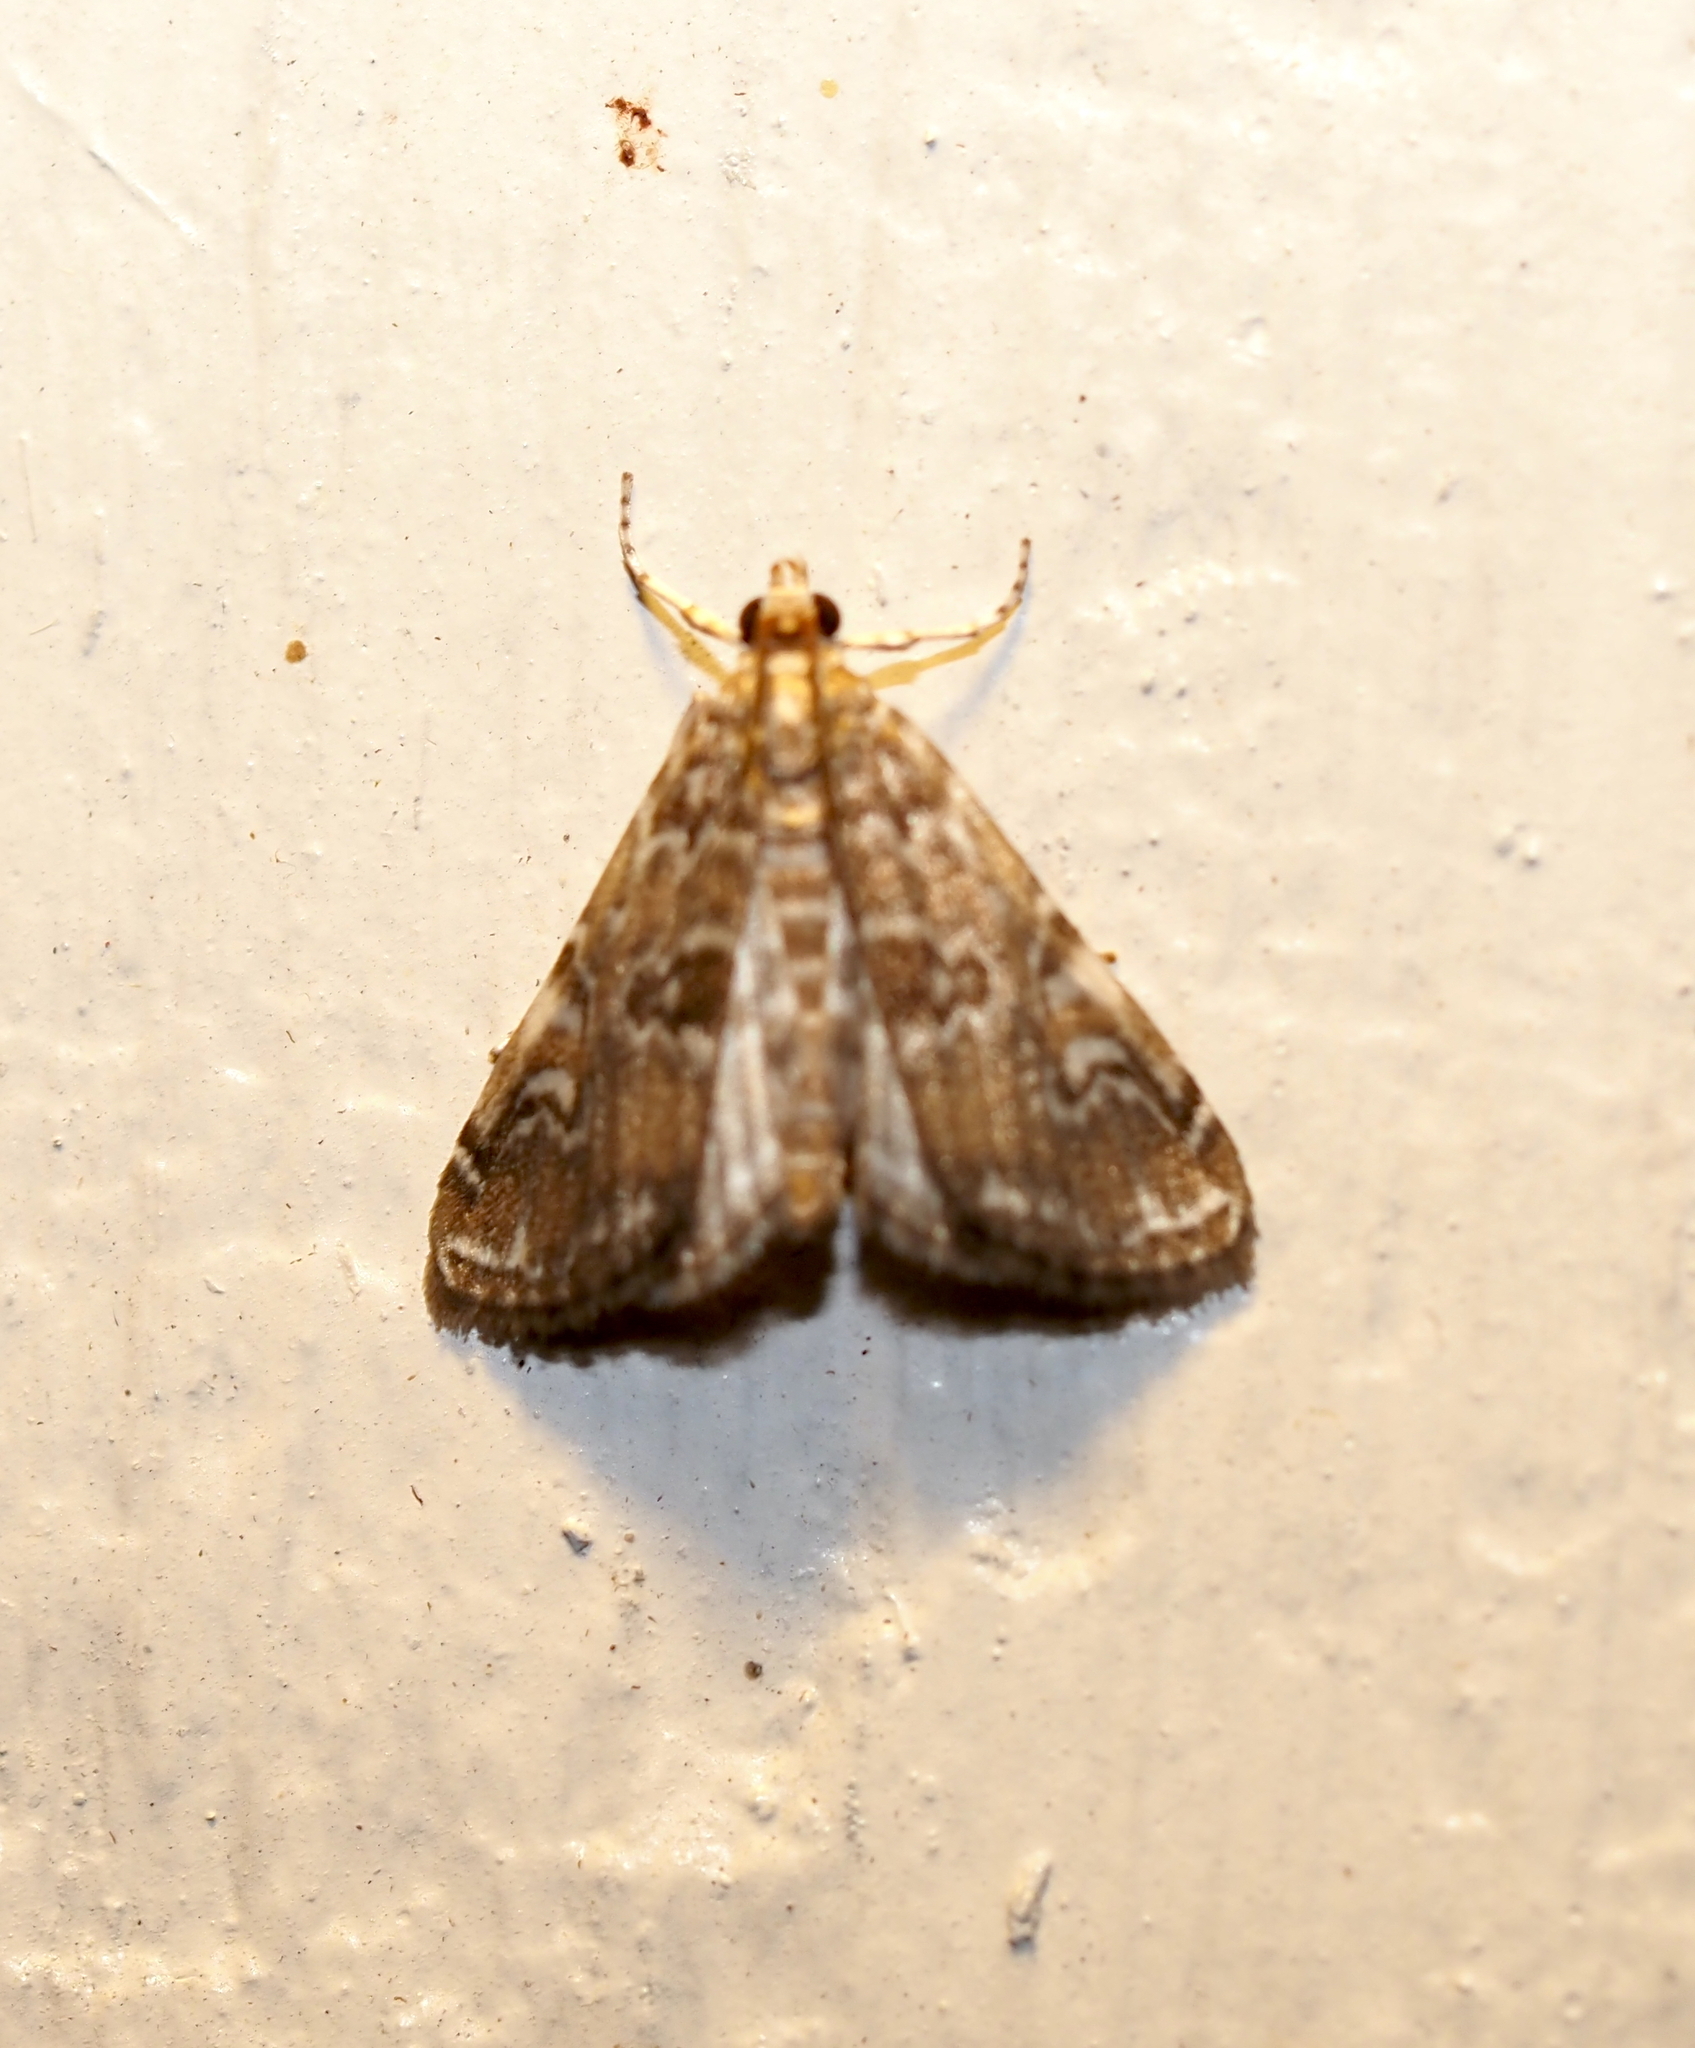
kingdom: Animalia
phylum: Arthropoda
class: Insecta
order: Lepidoptera
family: Crambidae
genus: Elophila
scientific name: Elophila gyralis
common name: Waterlily borer moth
